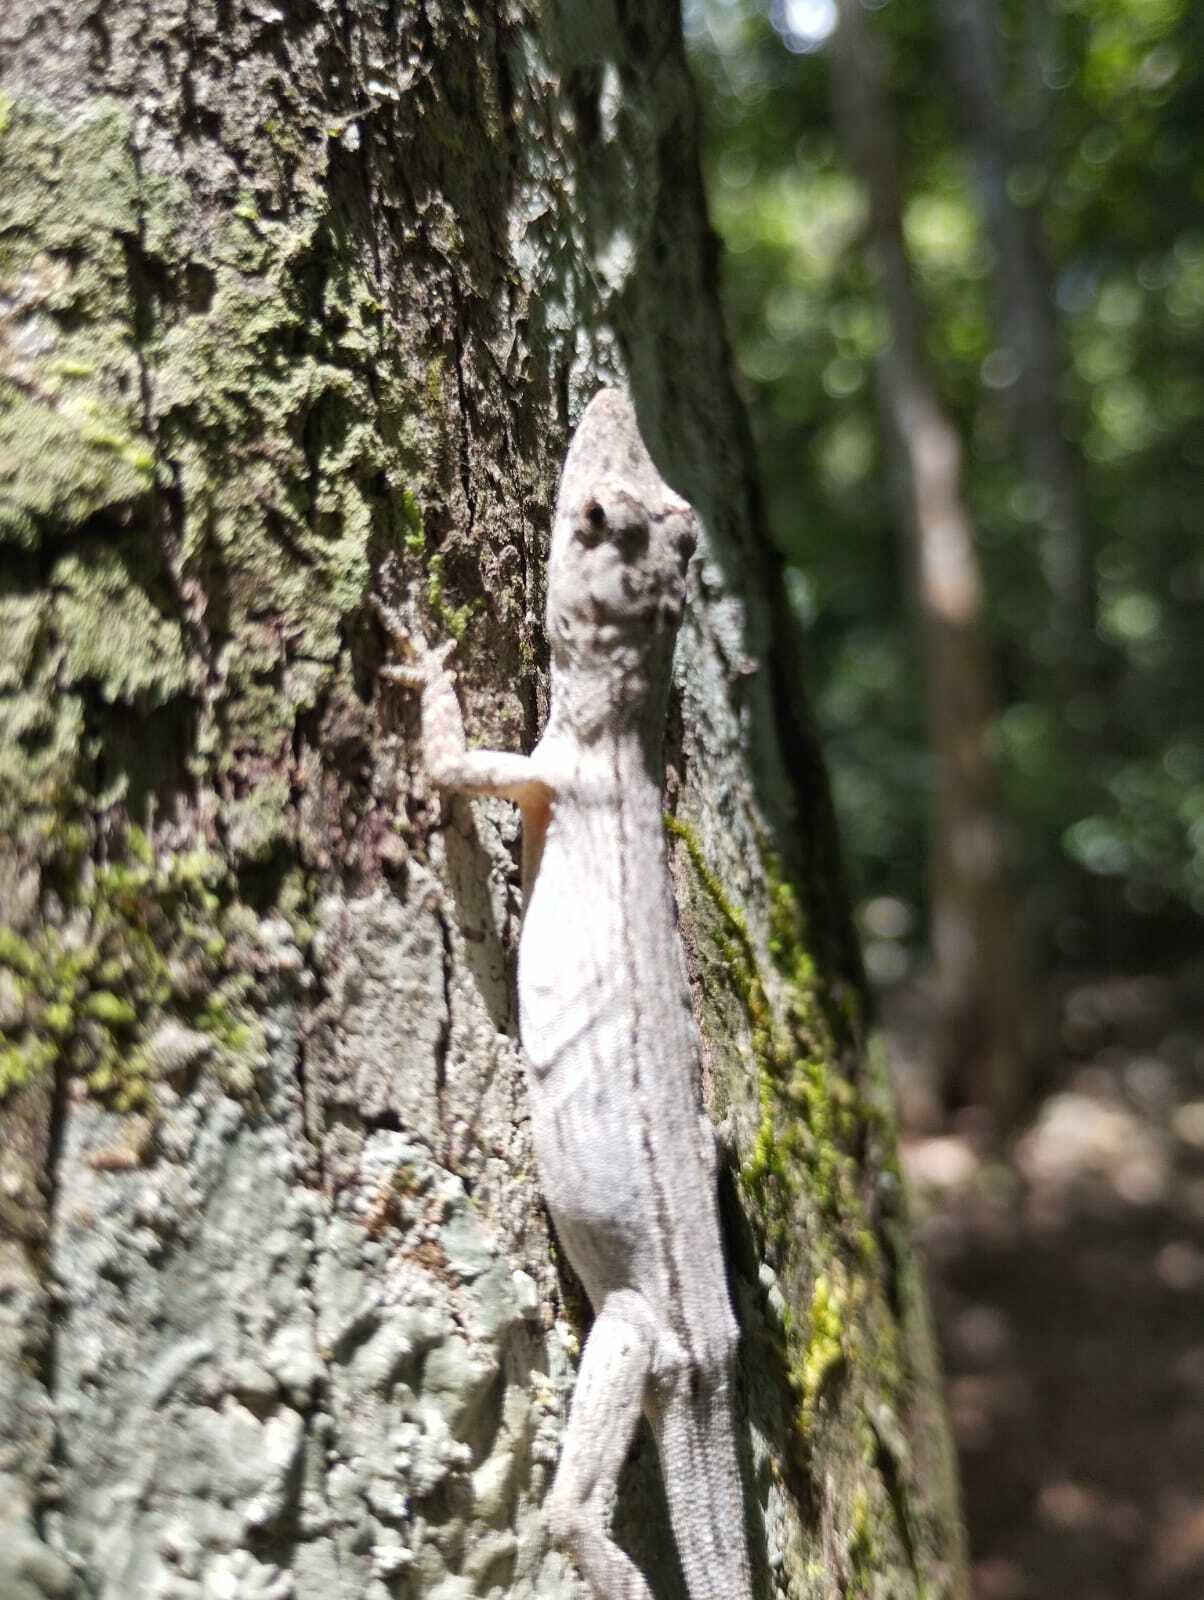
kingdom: Animalia
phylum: Chordata
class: Squamata
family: Dactyloidae
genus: Anolis
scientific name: Anolis ustus
